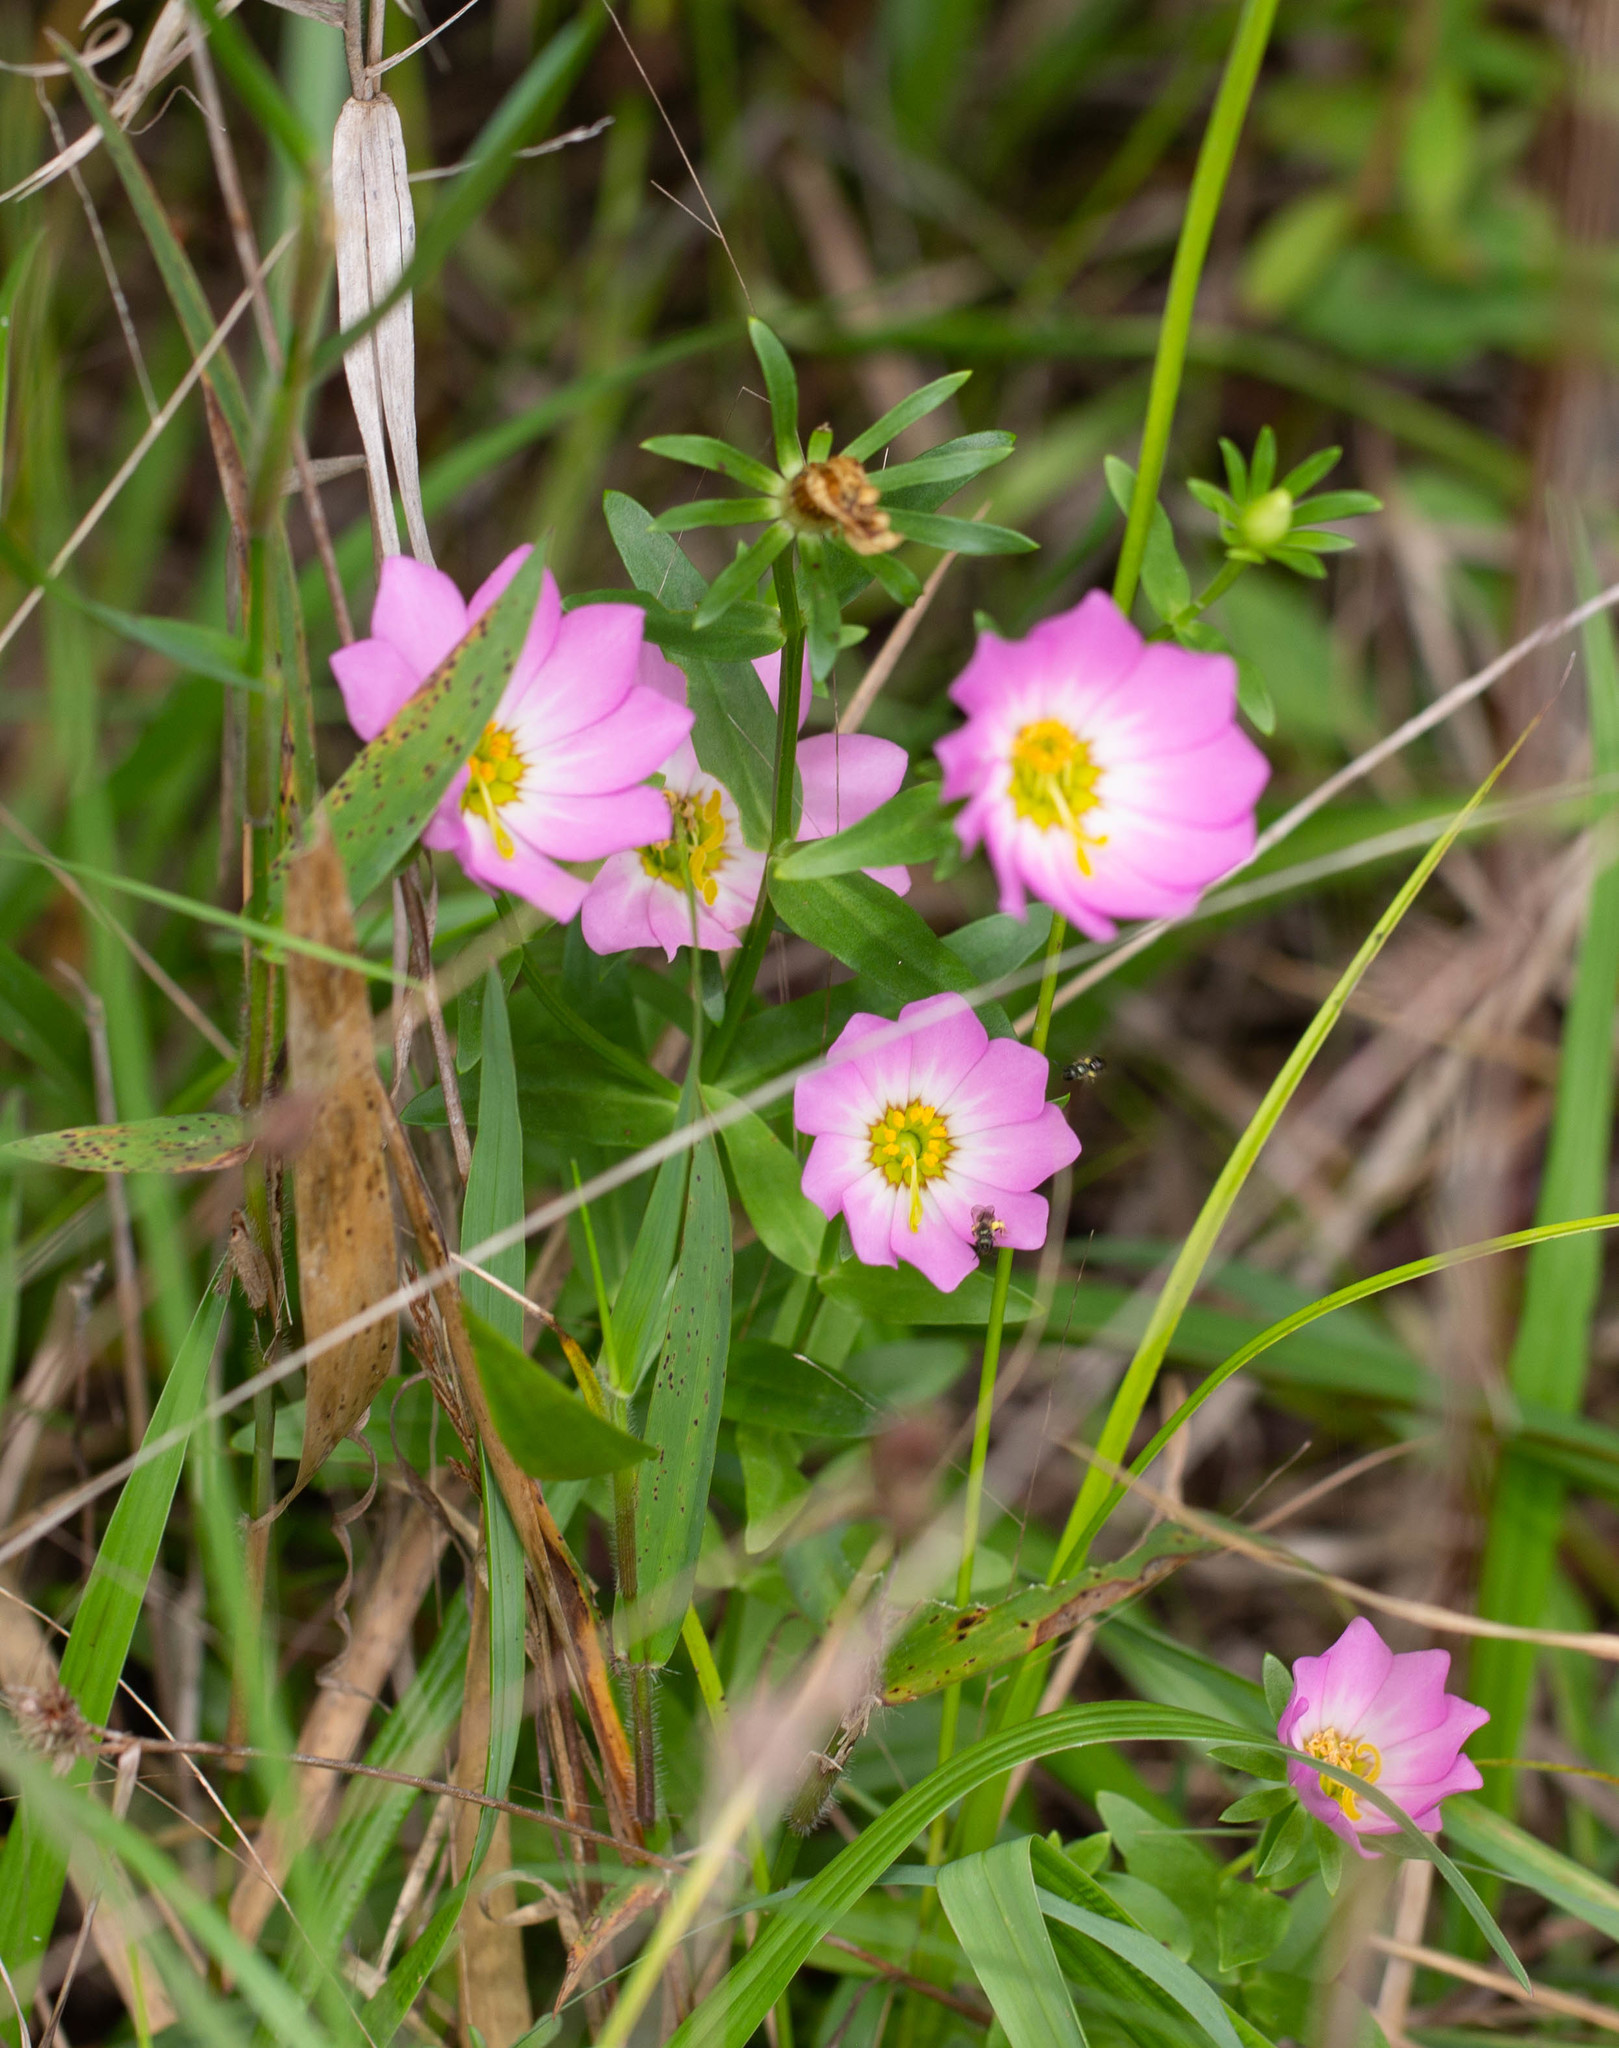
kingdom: Plantae
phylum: Tracheophyta
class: Magnoliopsida
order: Gentianales
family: Gentianaceae
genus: Sabatia
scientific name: Sabatia foliosa
